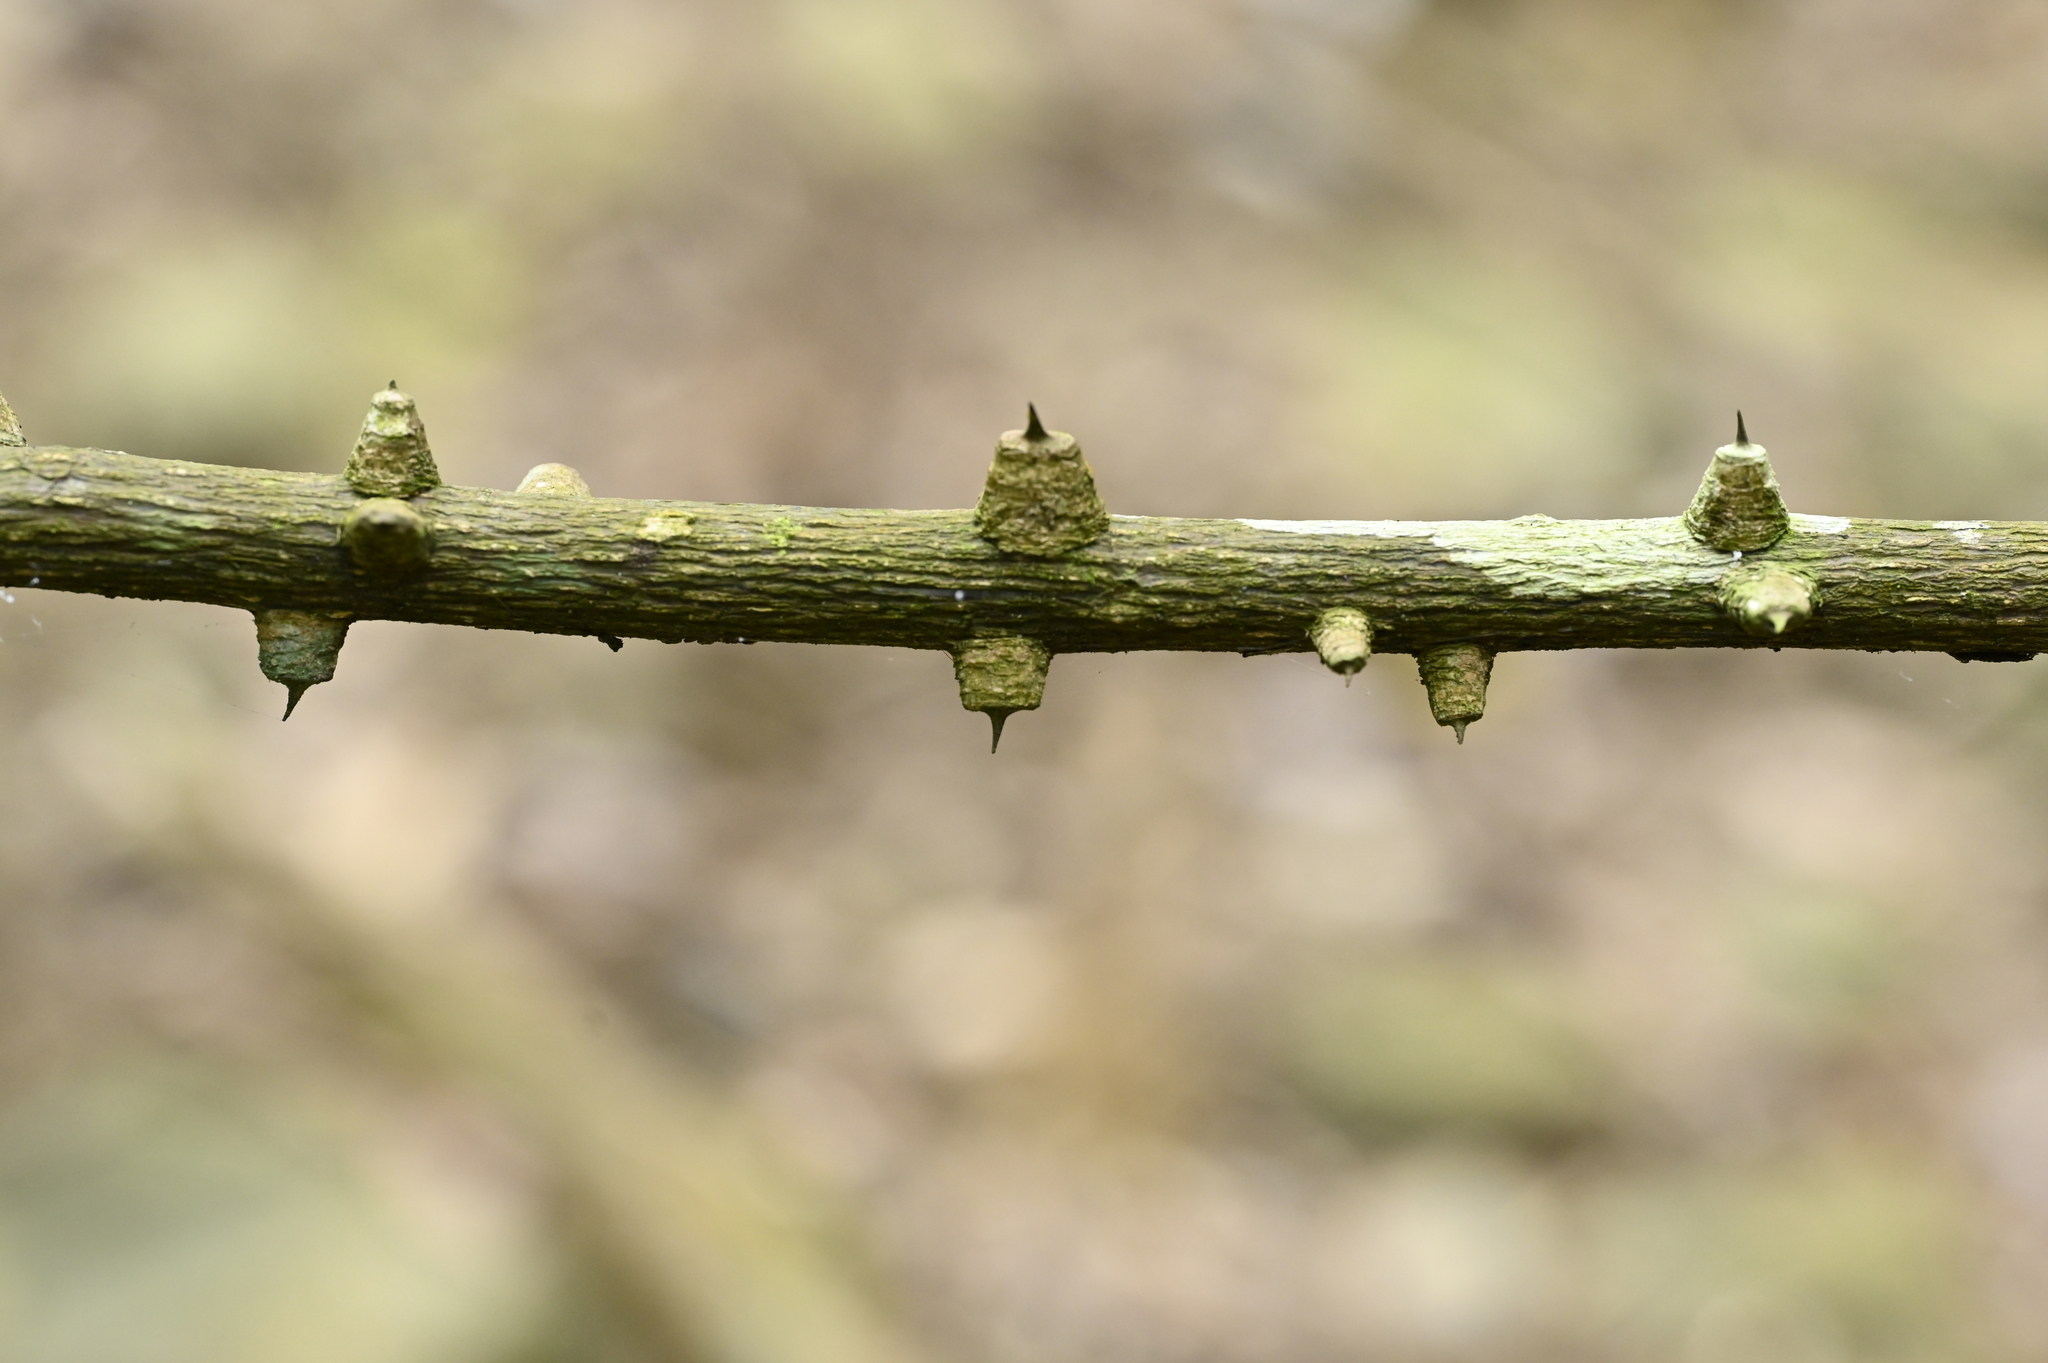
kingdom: Plantae
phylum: Tracheophyta
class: Magnoliopsida
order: Sapindales
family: Rutaceae
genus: Zanthoxylum
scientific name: Zanthoxylum scandens
